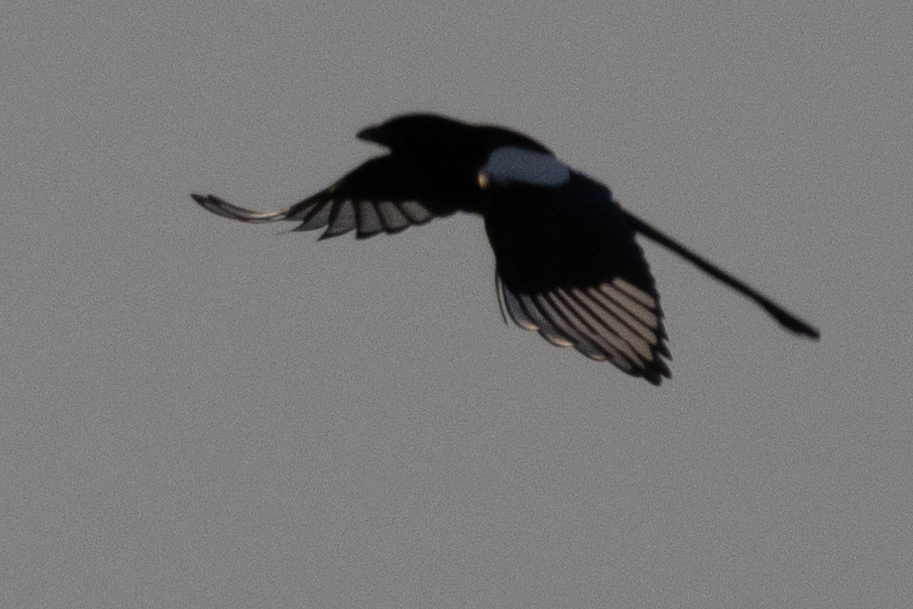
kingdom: Animalia
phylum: Chordata
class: Aves
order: Passeriformes
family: Corvidae
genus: Pica
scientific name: Pica pica
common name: Eurasian magpie
